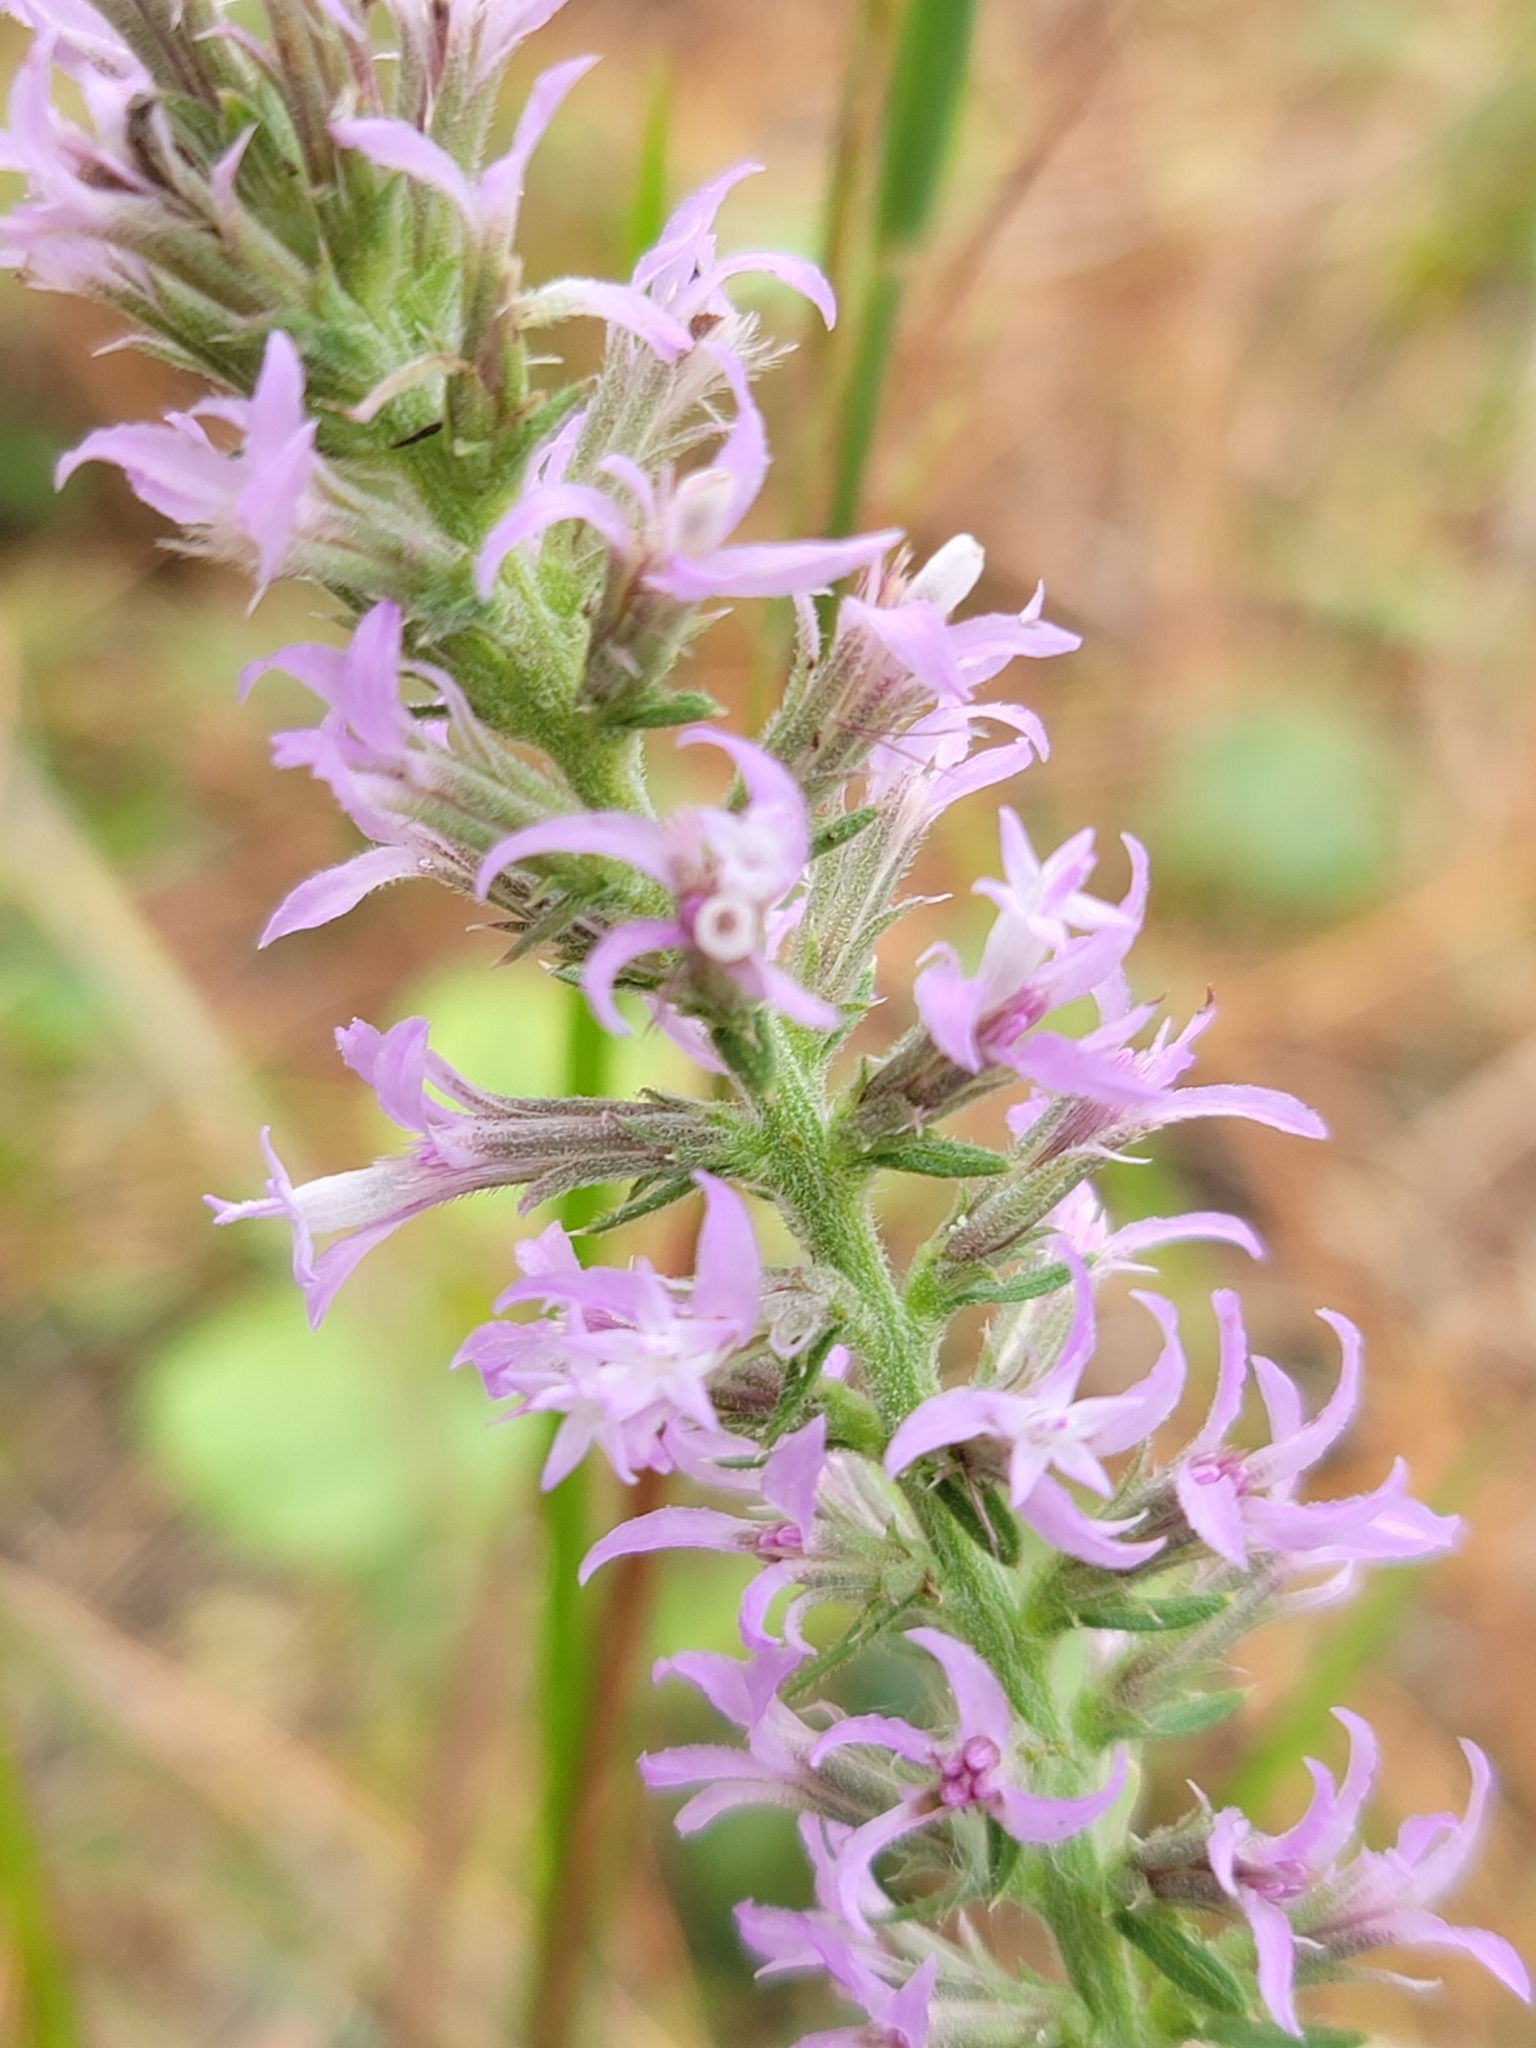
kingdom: Plantae
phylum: Tracheophyta
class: Magnoliopsida
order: Asterales
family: Asteraceae
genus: Liatris
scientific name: Liatris elegans
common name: Pinkscale gayfeather
